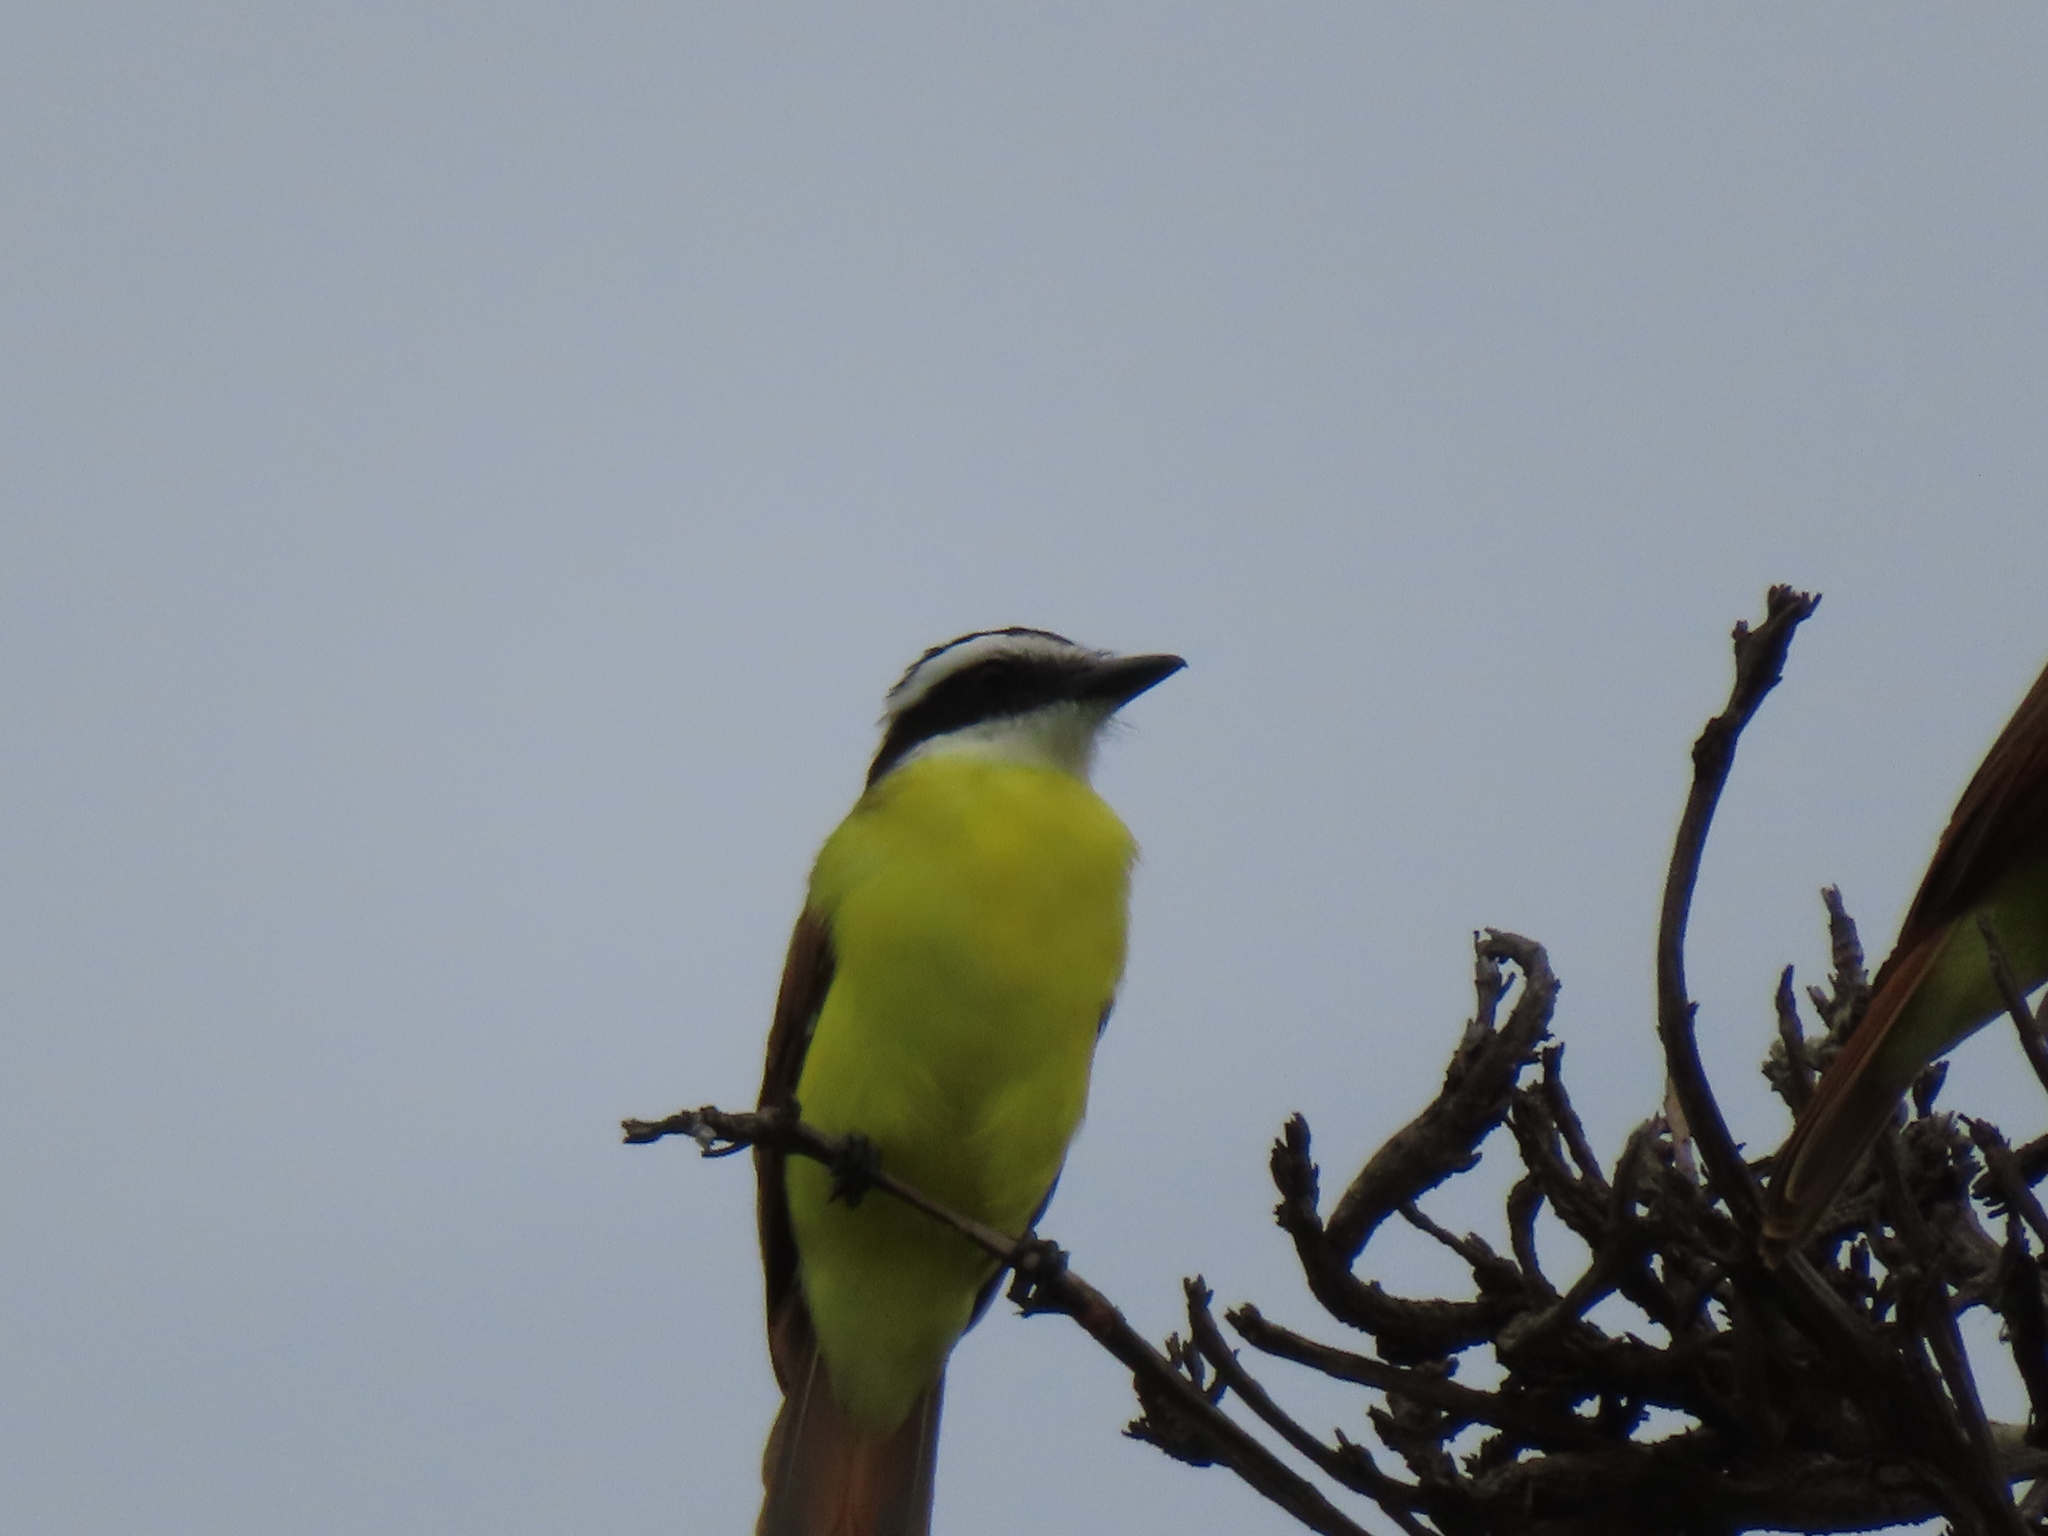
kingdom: Animalia
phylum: Chordata
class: Aves
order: Passeriformes
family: Tyrannidae
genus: Pitangus
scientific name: Pitangus sulphuratus
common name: Great kiskadee
